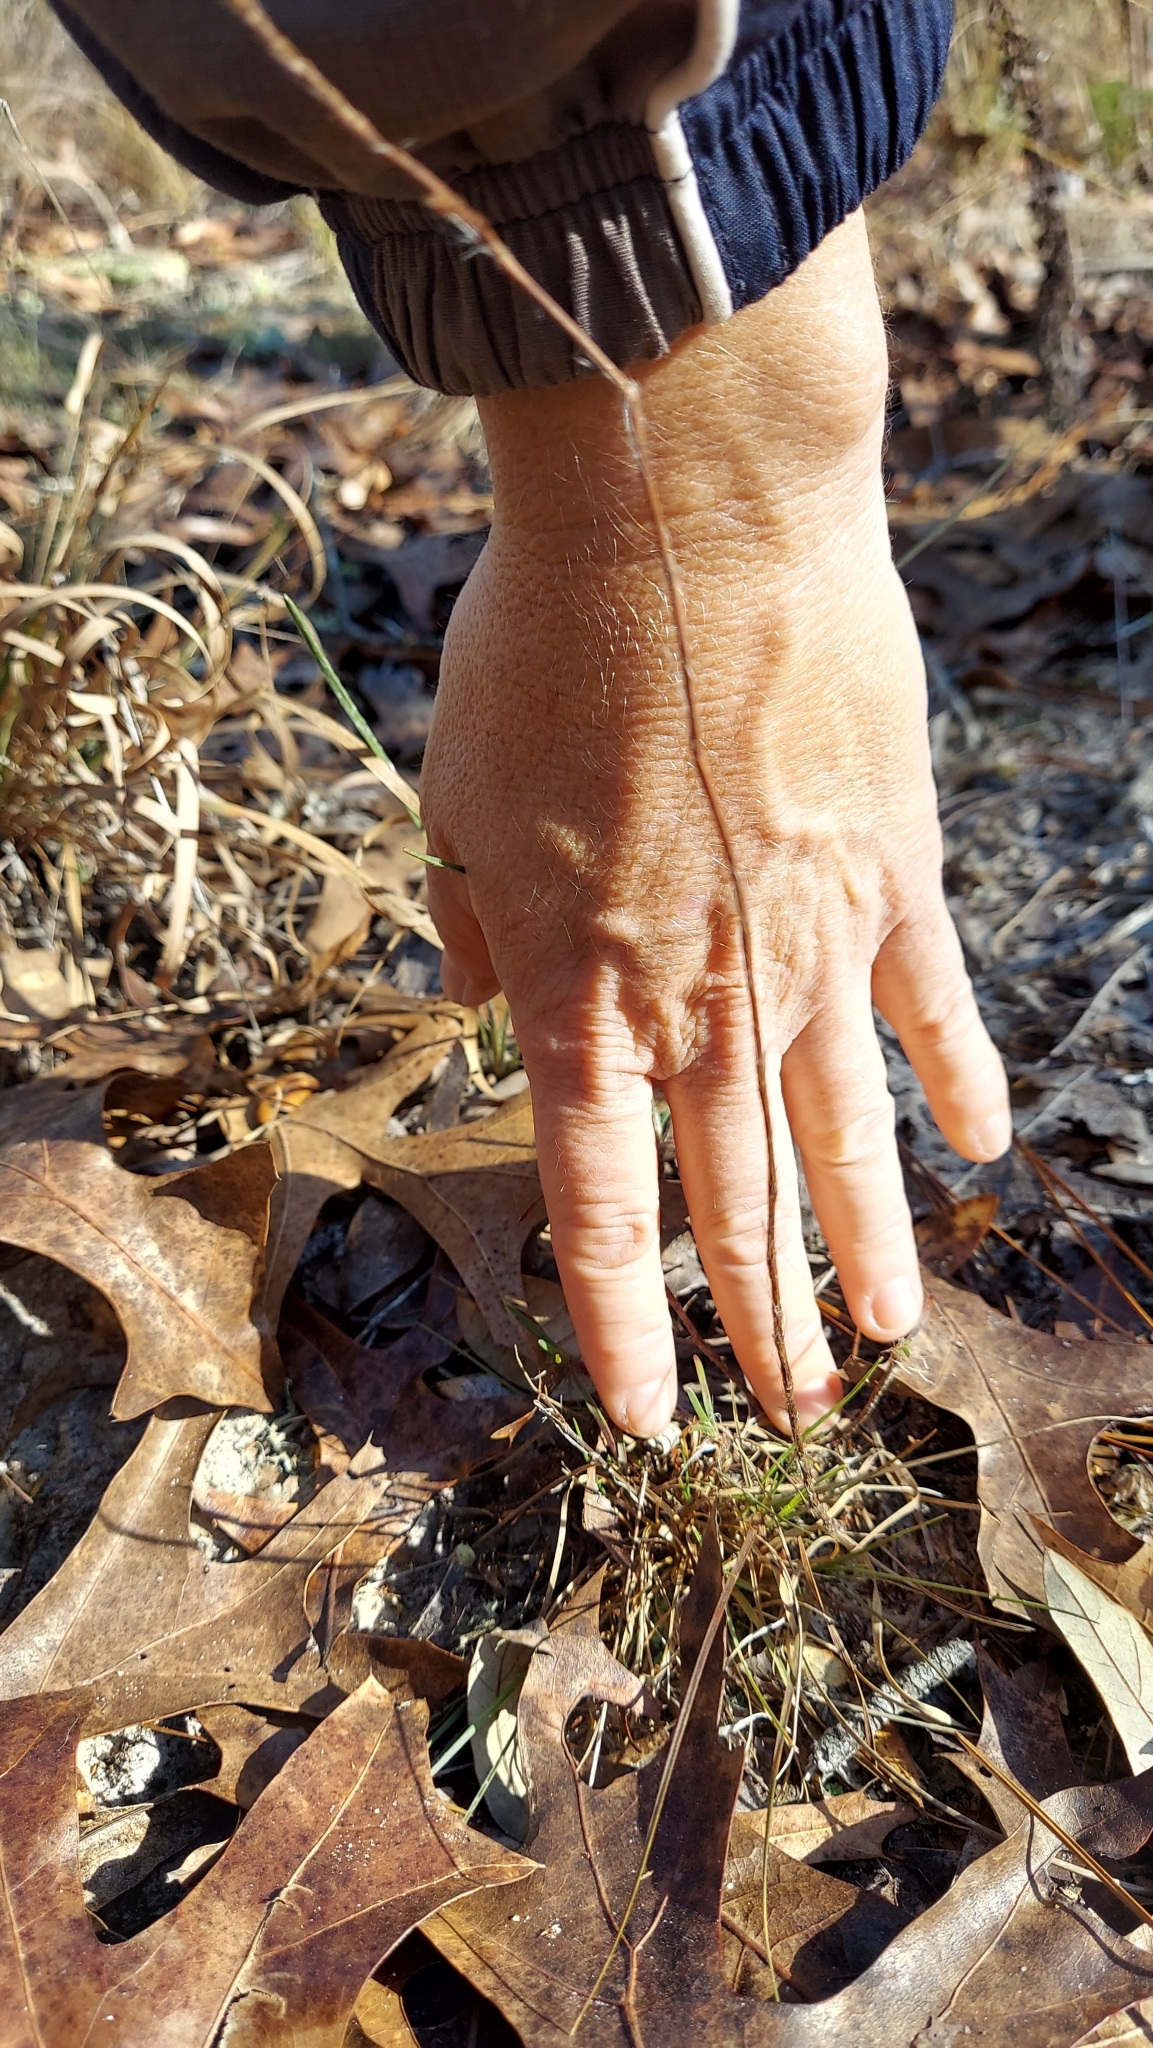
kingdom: Plantae
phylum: Tracheophyta
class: Magnoliopsida
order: Caryophyllales
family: Polygonaceae
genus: Polygonella
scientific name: Polygonella robusta
